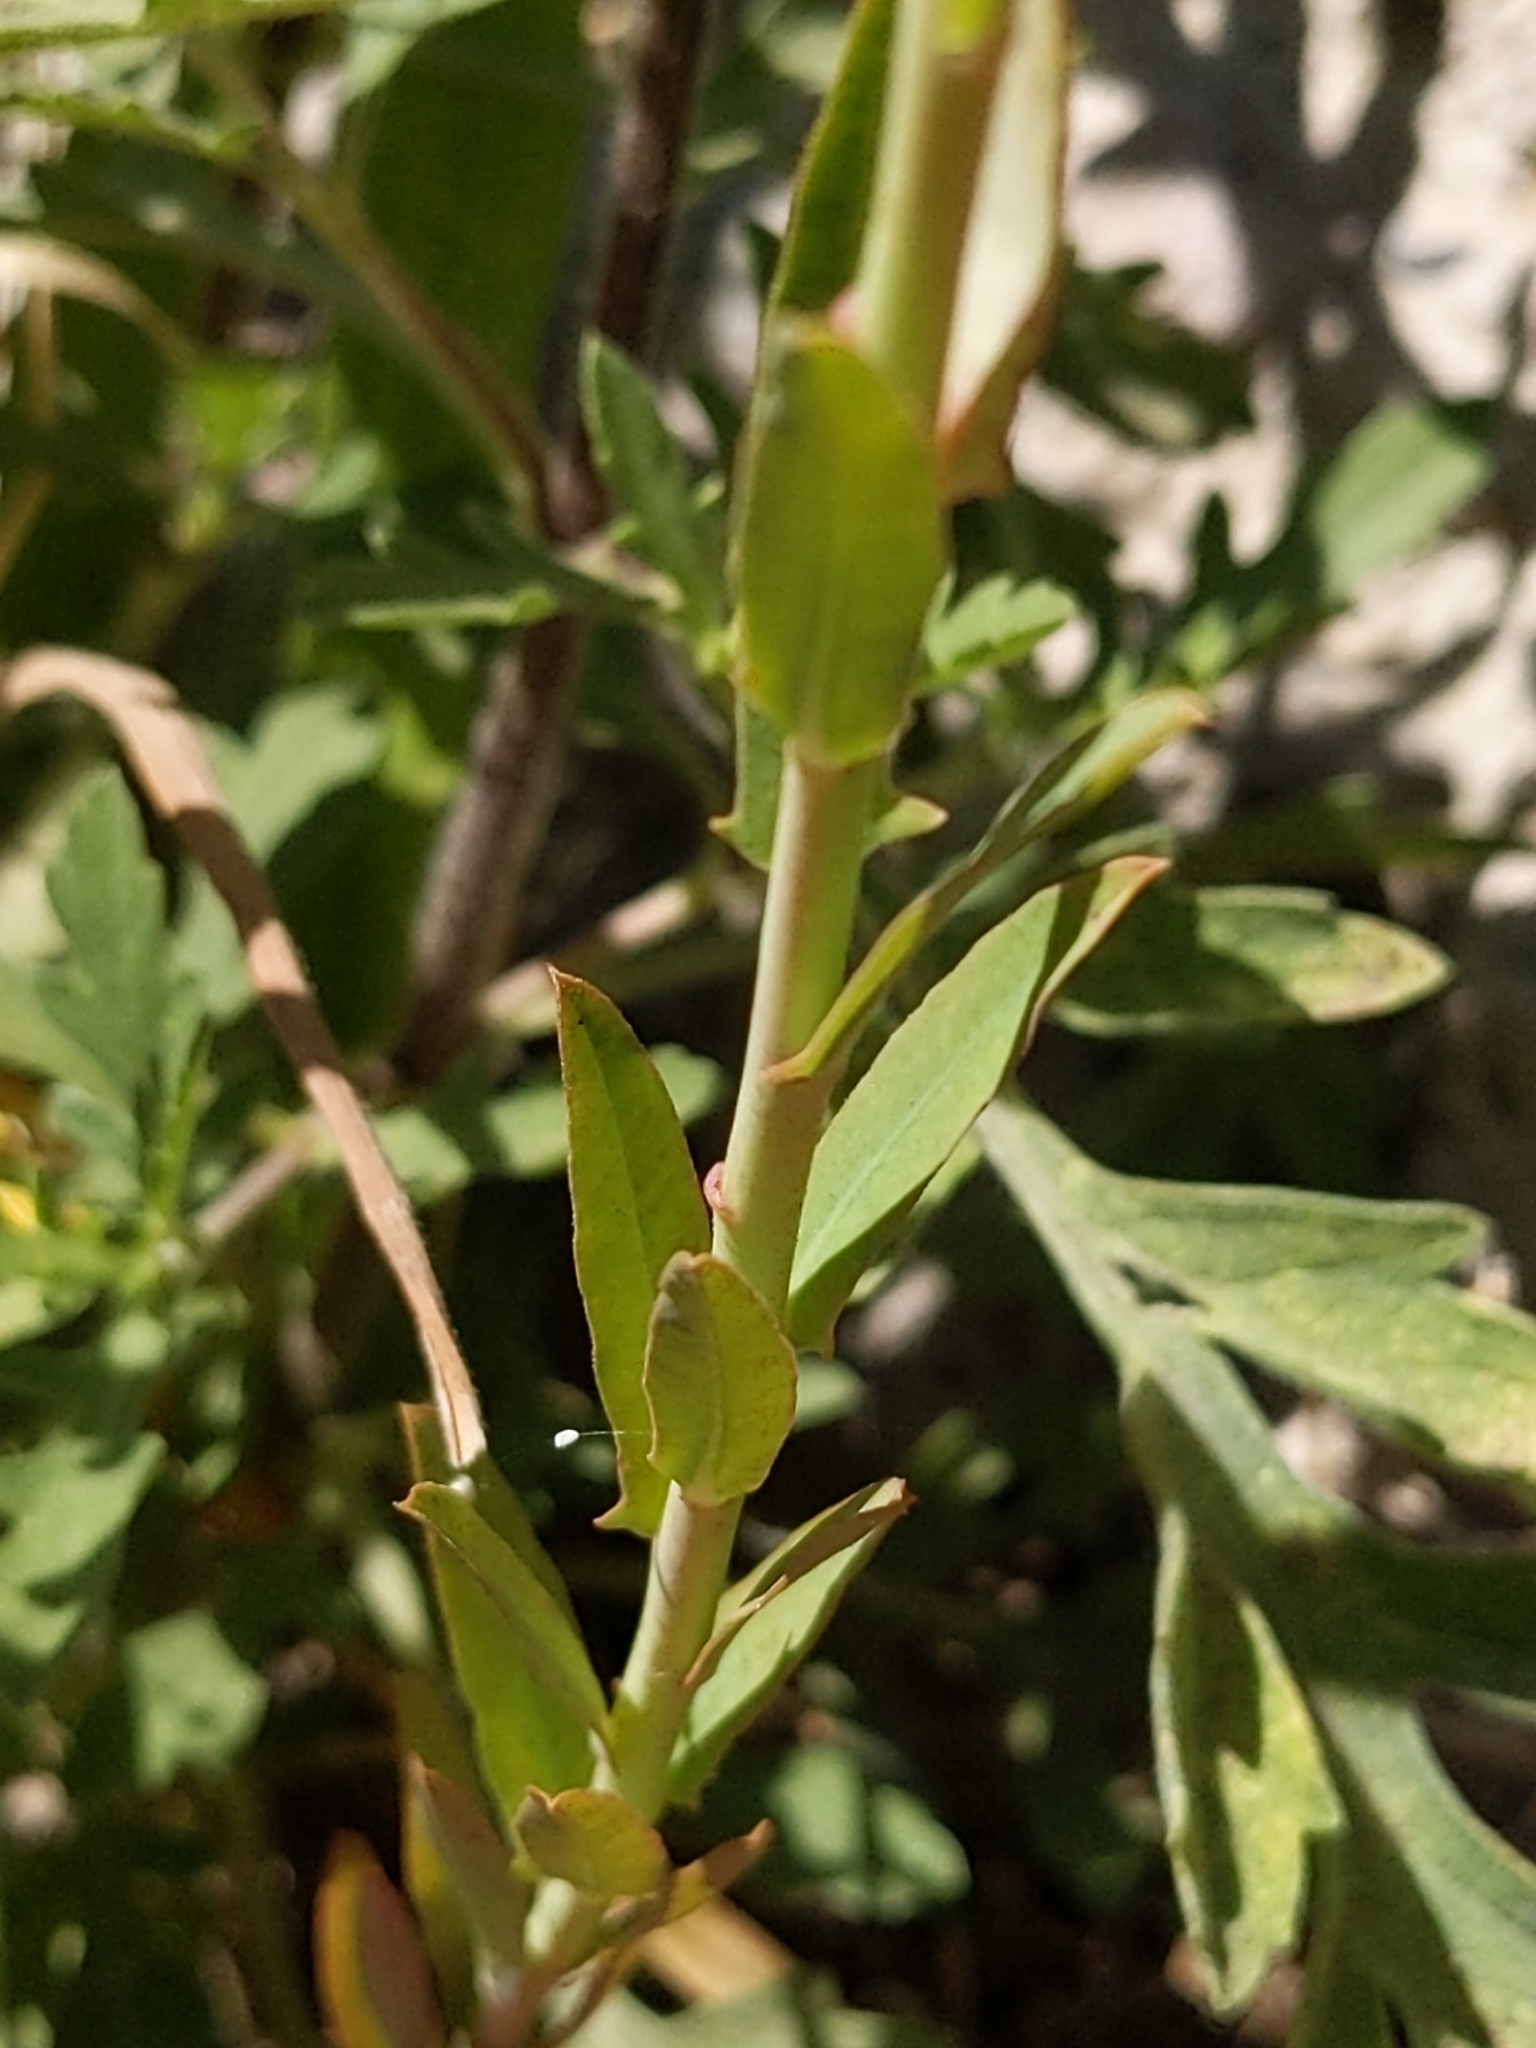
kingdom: Plantae
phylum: Tracheophyta
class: Magnoliopsida
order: Malpighiales
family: Euphorbiaceae
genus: Euphorbia
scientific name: Euphorbia terracina
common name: Geraldton carnation weed
